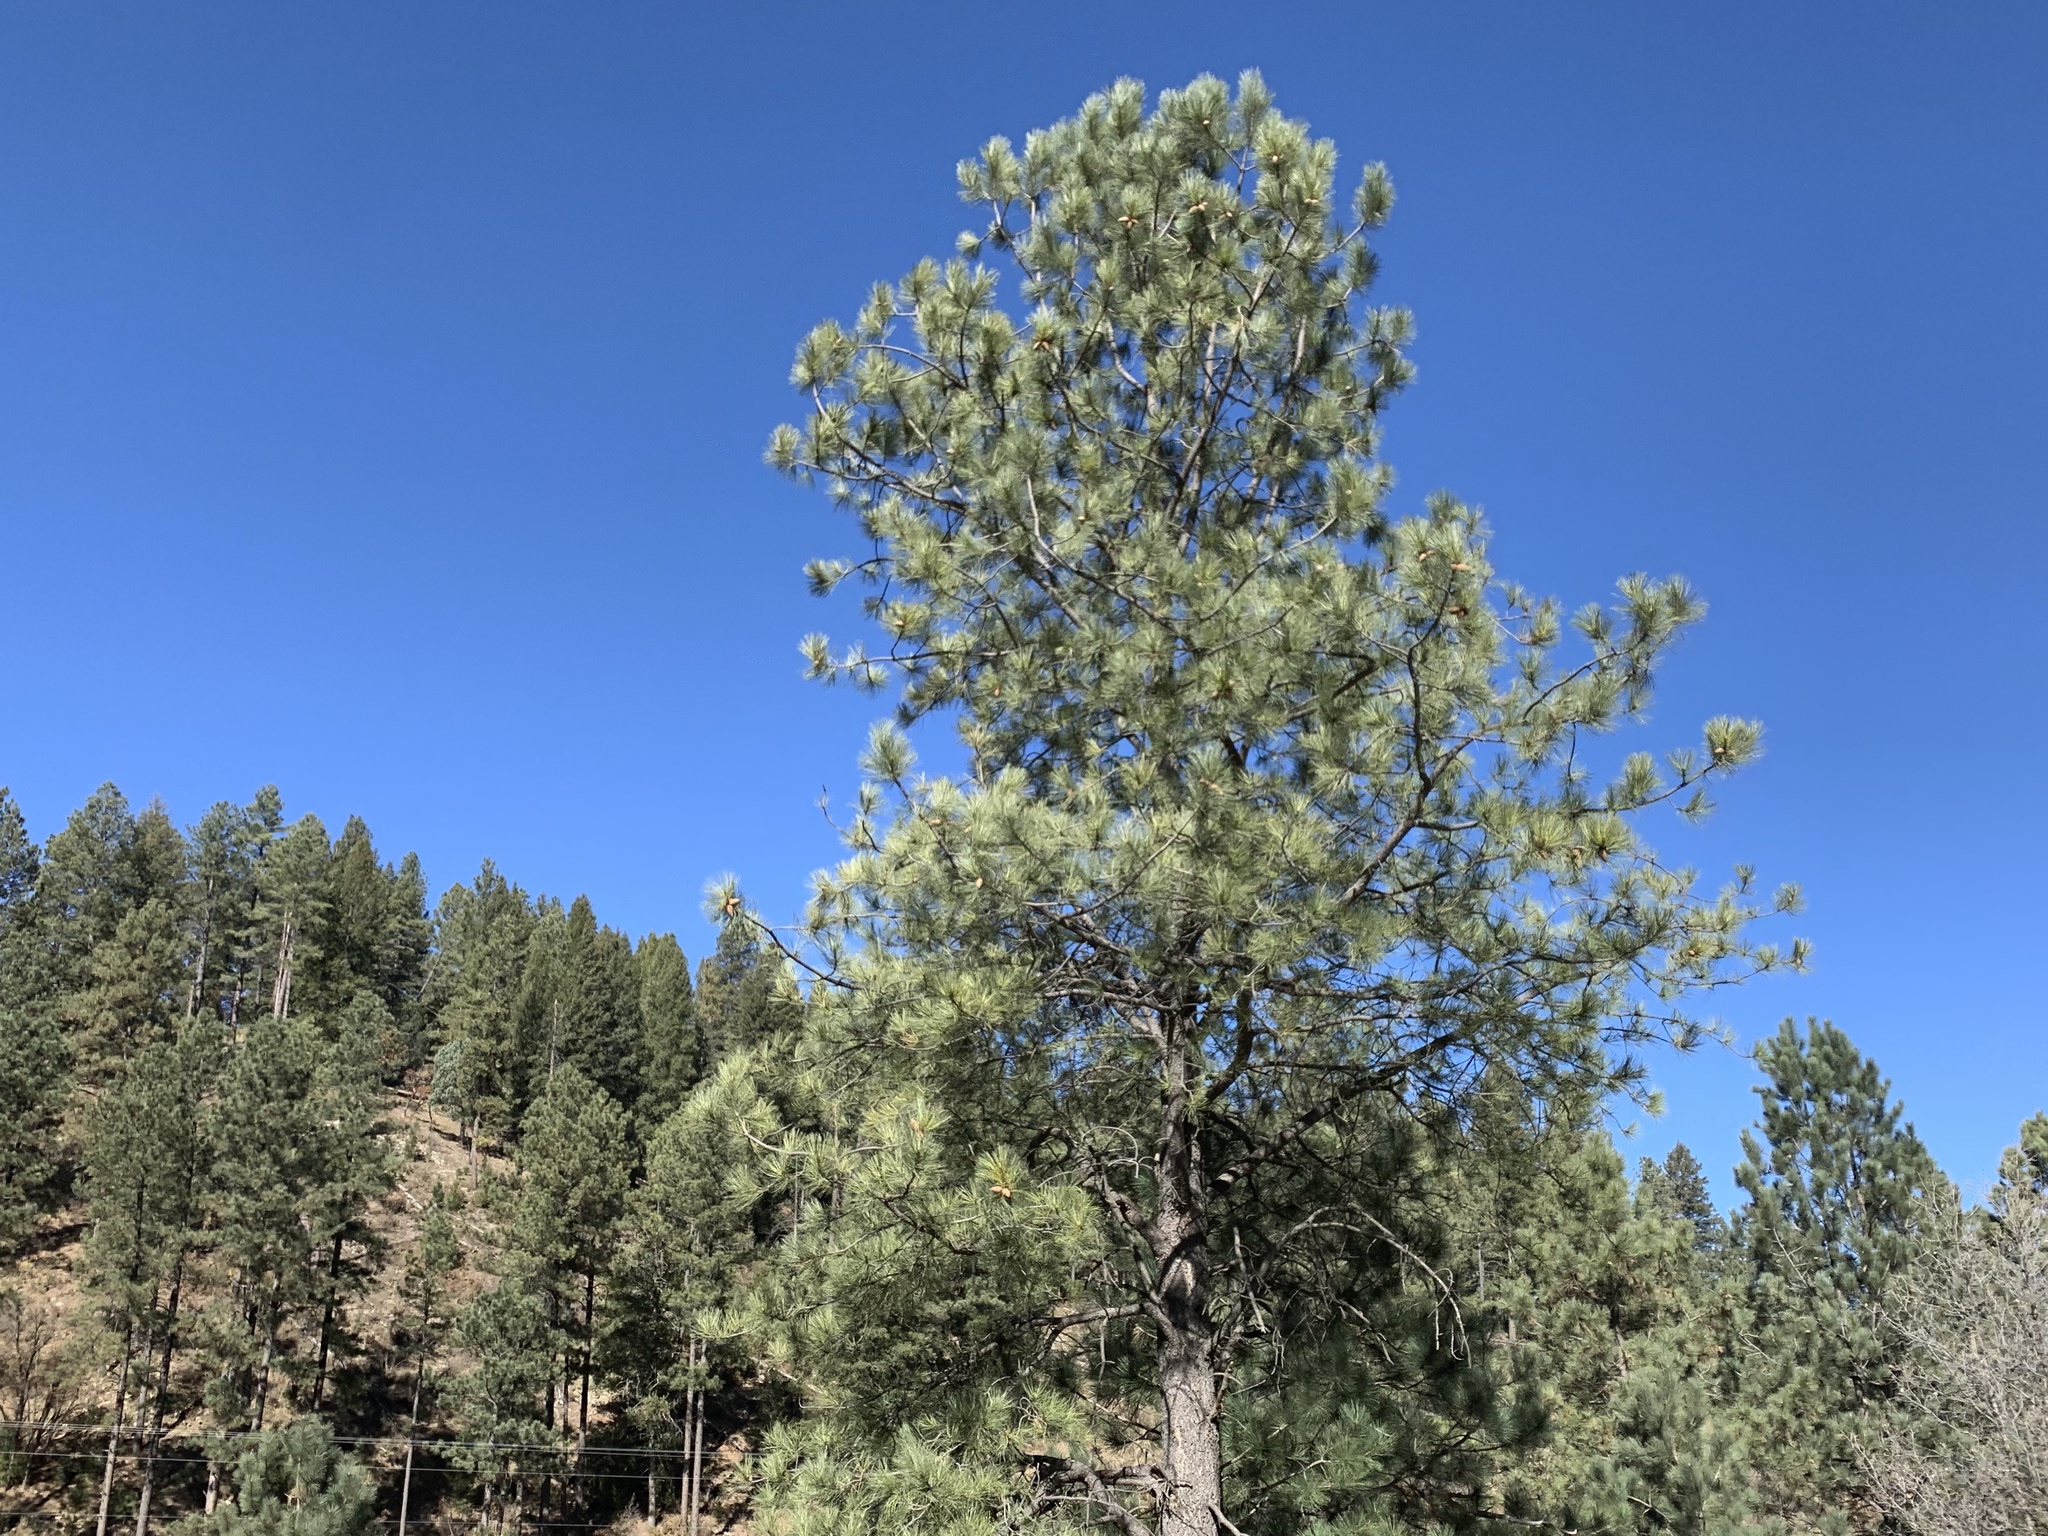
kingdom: Plantae
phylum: Tracheophyta
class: Pinopsida
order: Pinales
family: Pinaceae
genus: Pinus
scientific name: Pinus ponderosa
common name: Western yellow-pine
